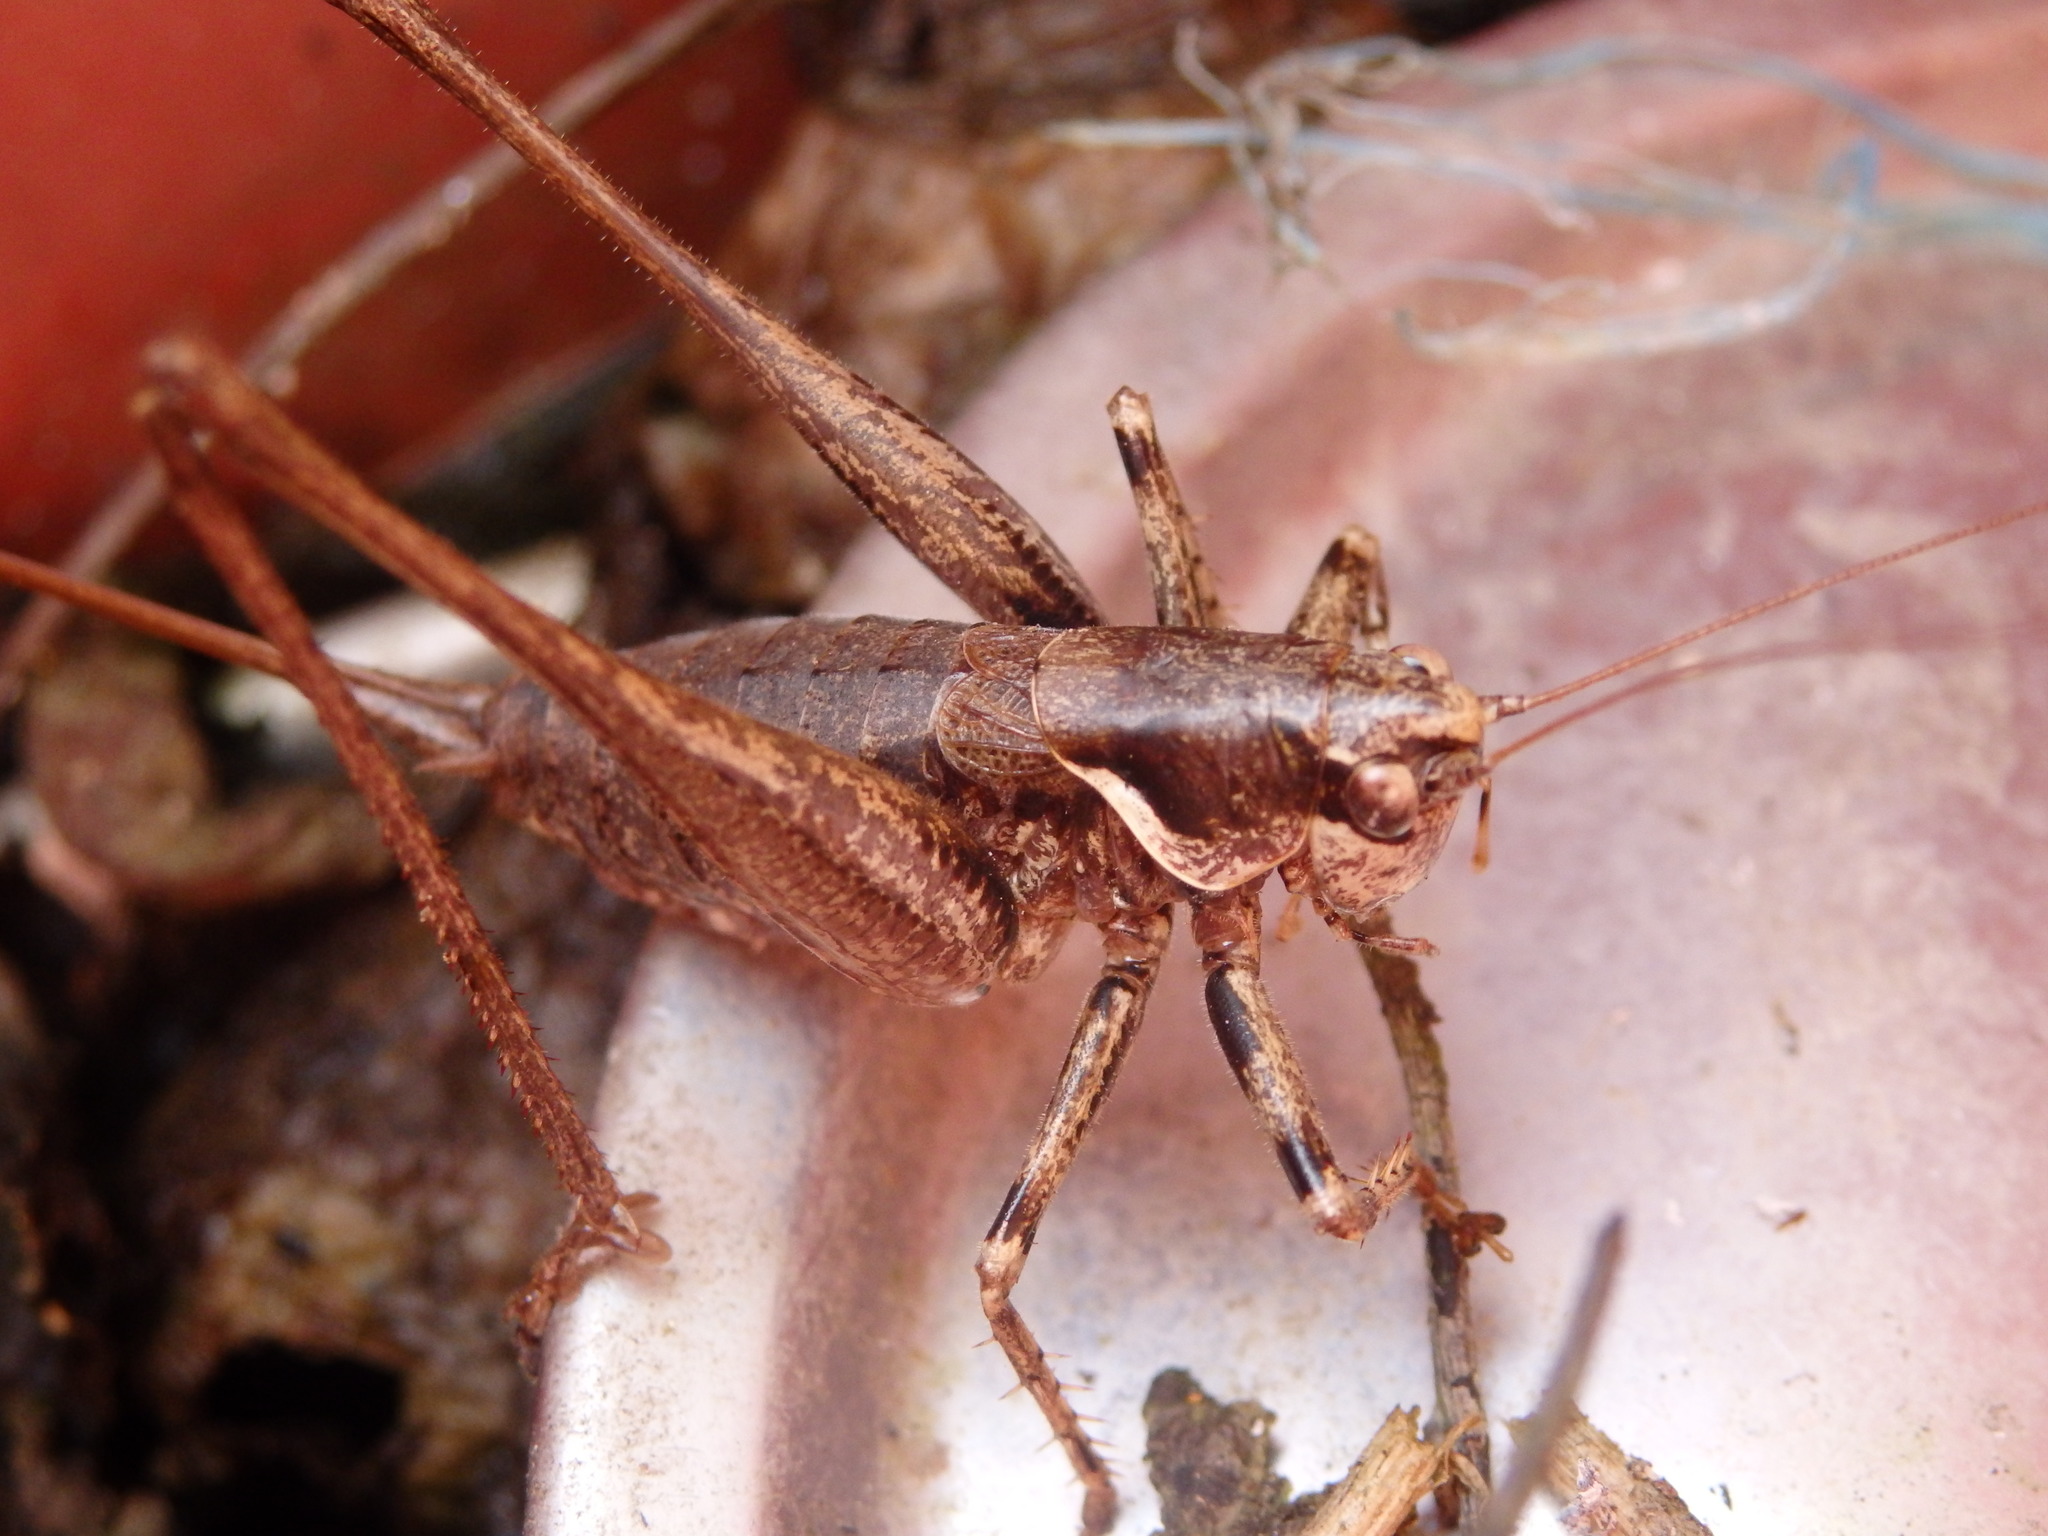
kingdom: Animalia
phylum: Arthropoda
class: Insecta
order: Orthoptera
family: Tettigoniidae
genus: Antaxius
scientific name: Antaxius spinibrachius
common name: Spiny-legged bush-cricket
